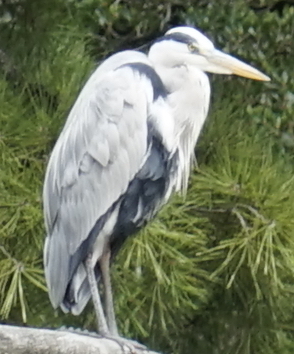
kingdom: Animalia
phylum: Chordata
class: Aves
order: Pelecaniformes
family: Ardeidae
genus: Ardea
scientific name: Ardea cinerea
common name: Grey heron
